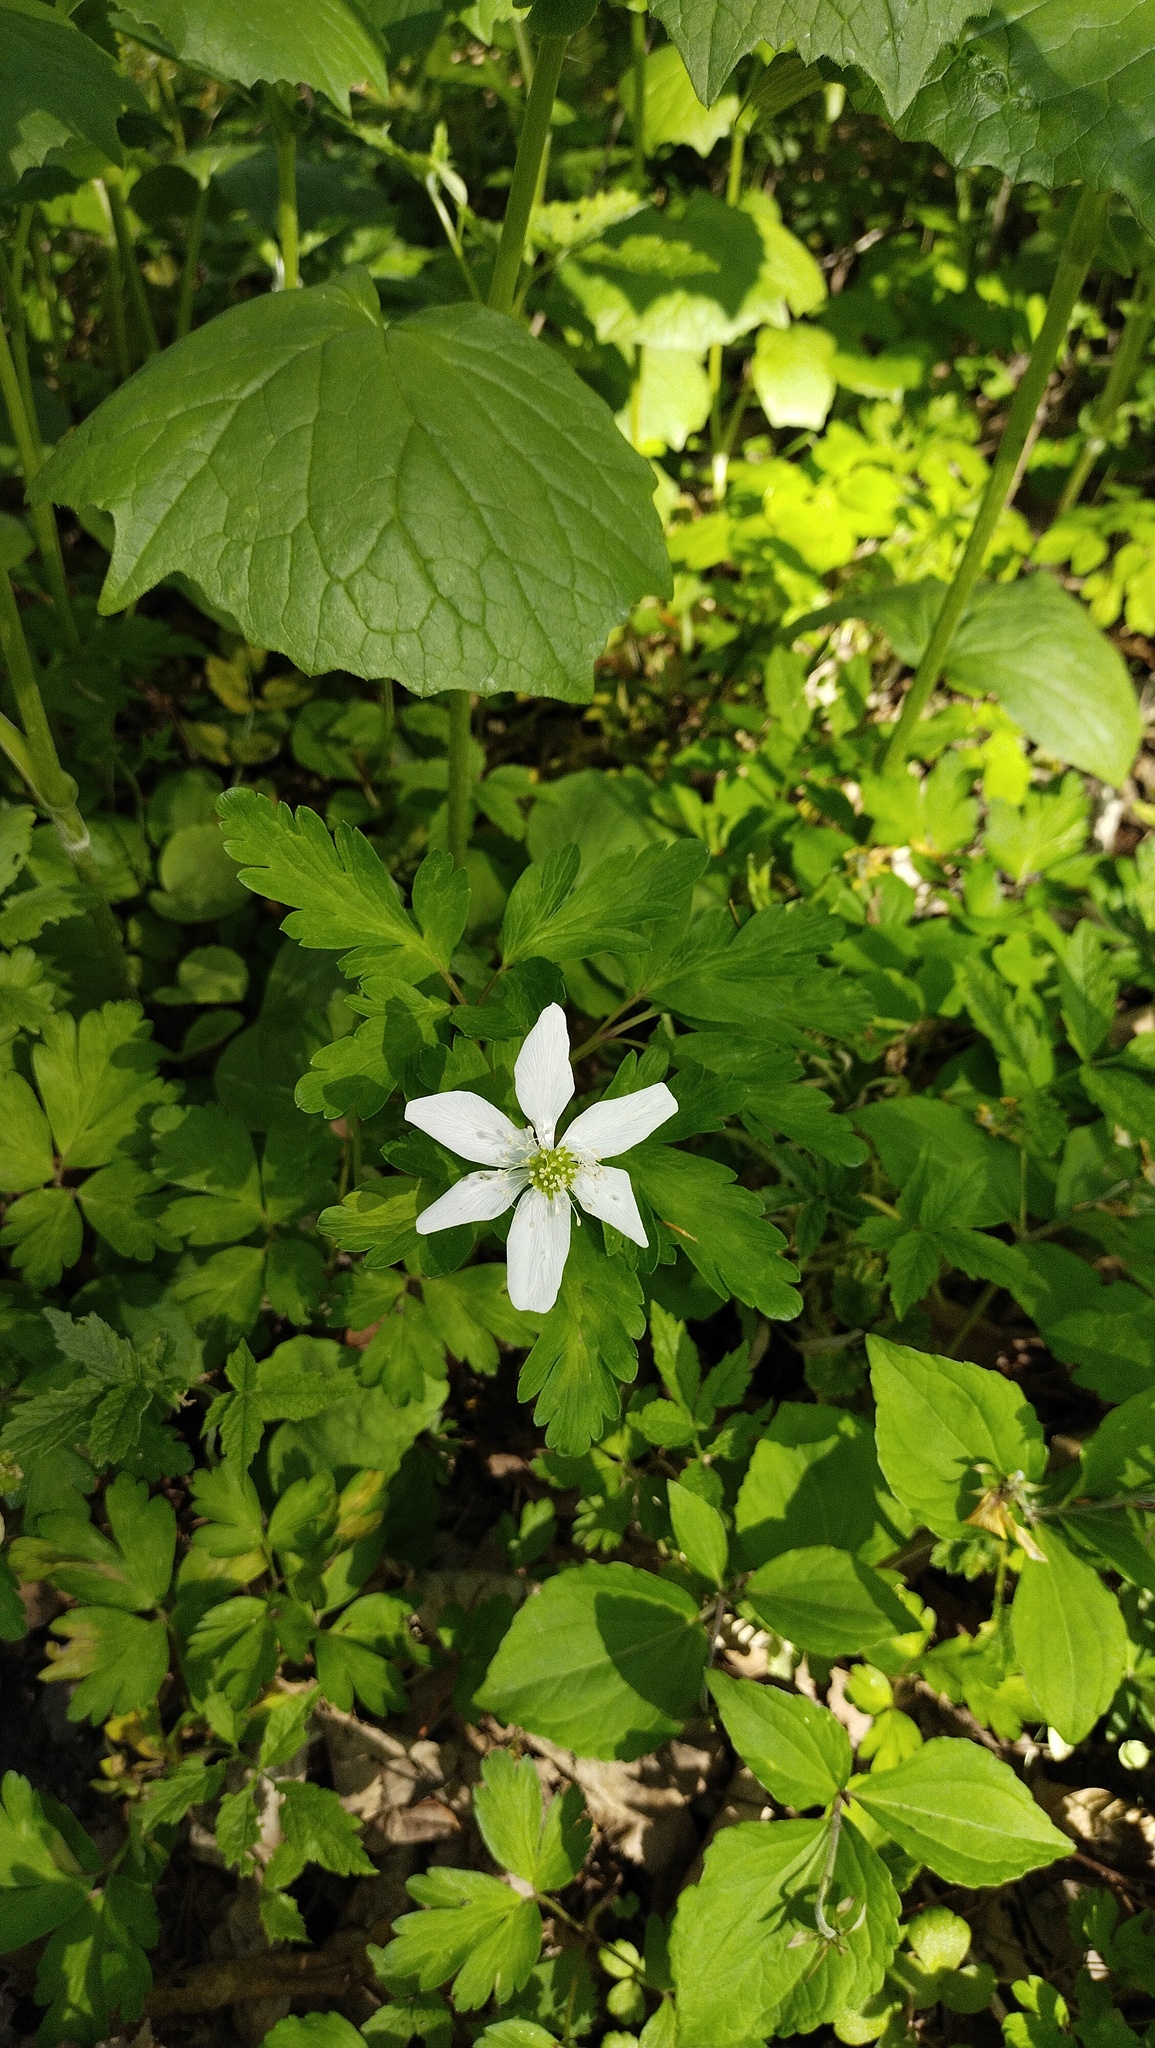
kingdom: Plantae
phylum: Tracheophyta
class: Magnoliopsida
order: Ranunculales
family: Ranunculaceae
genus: Anemone
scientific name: Anemone amurensis
